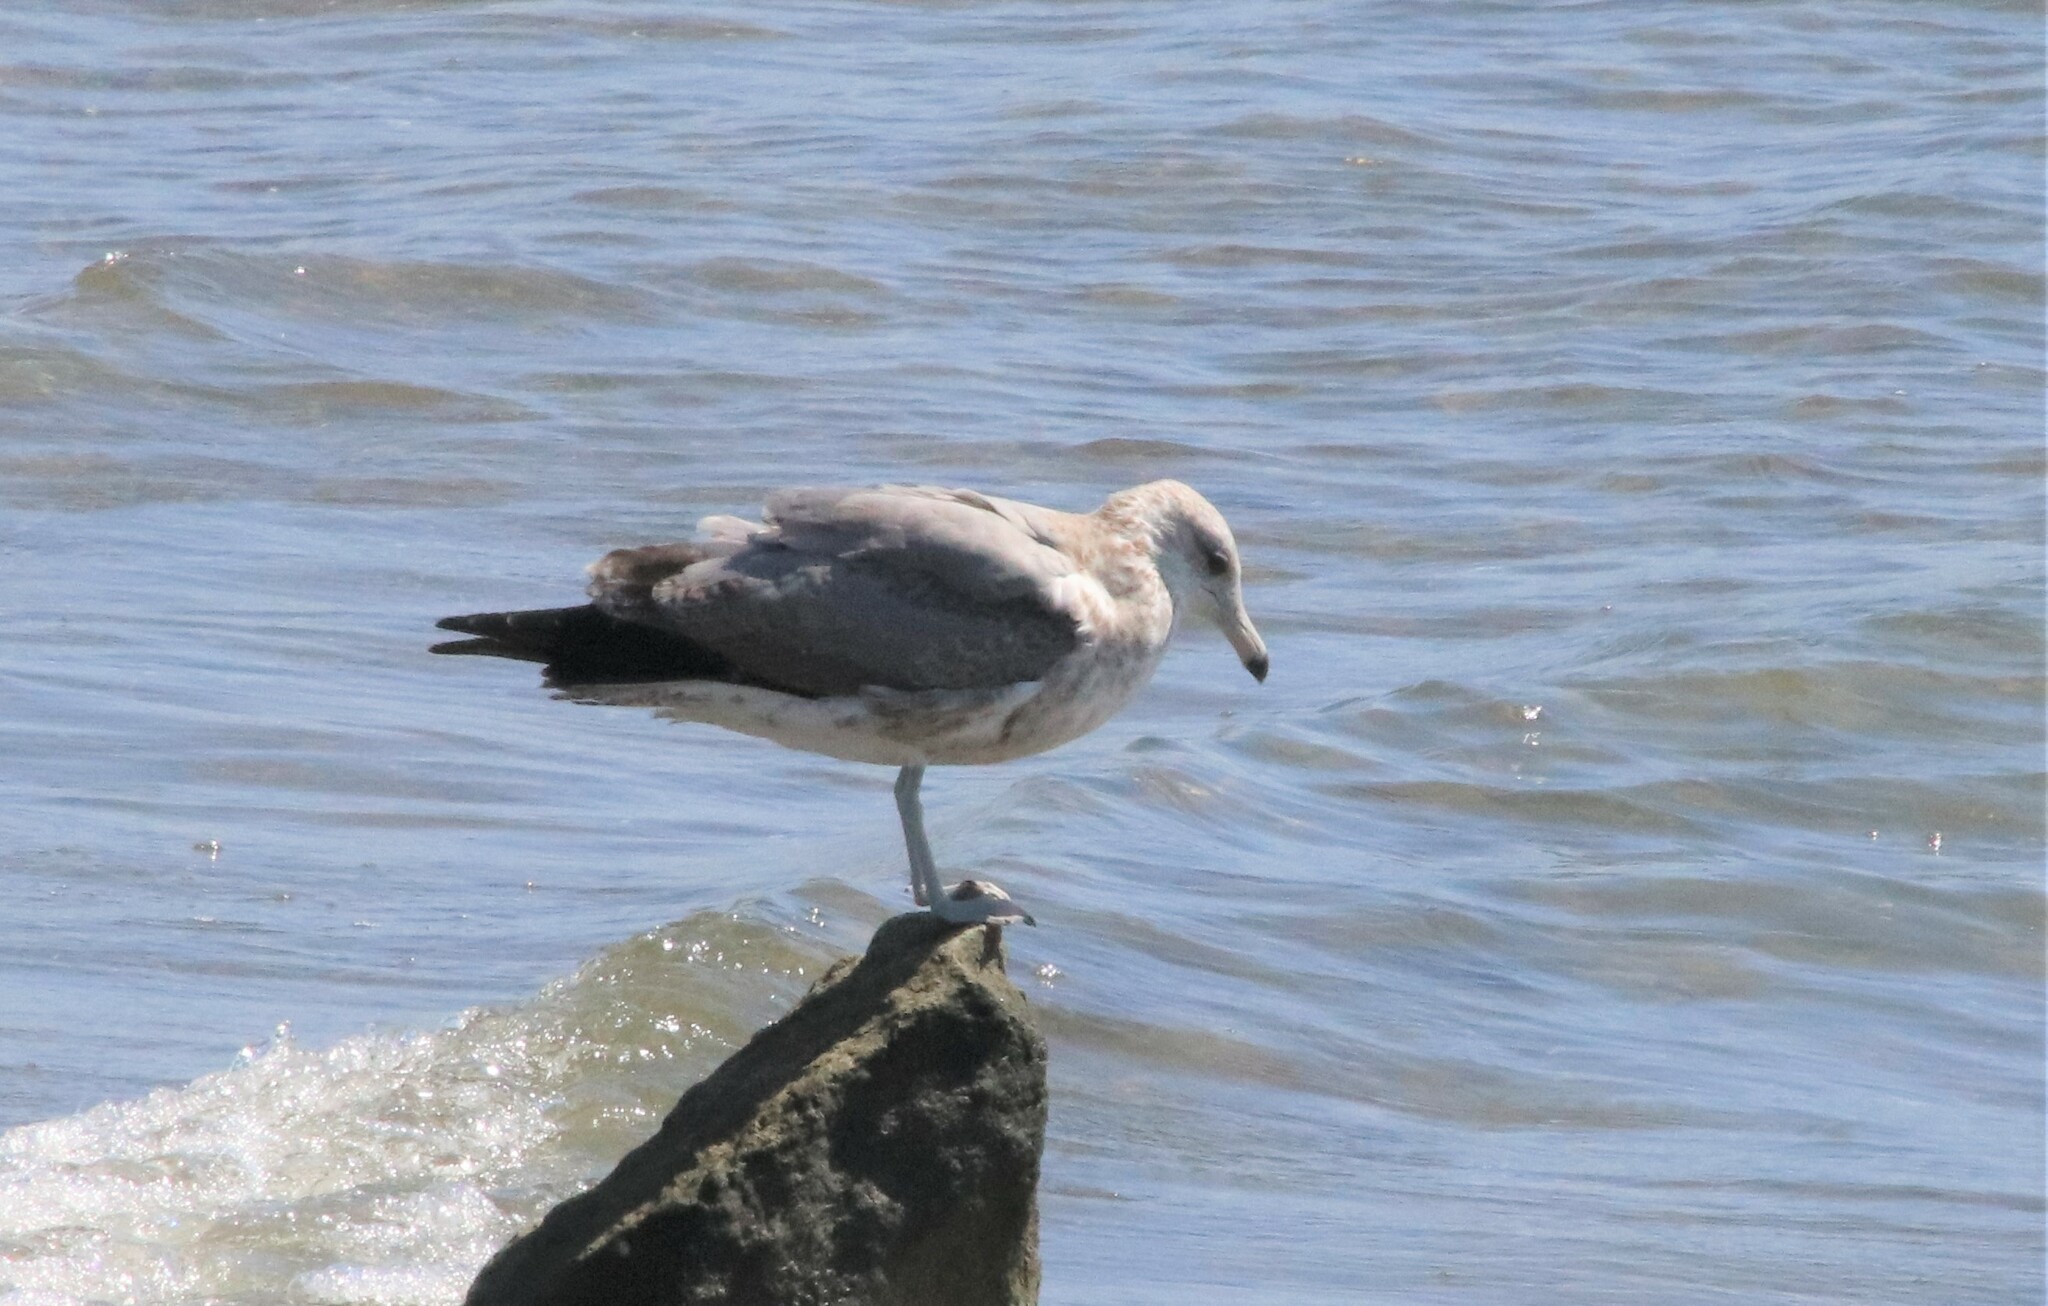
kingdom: Animalia
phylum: Chordata
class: Aves
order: Charadriiformes
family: Laridae
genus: Larus
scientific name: Larus californicus
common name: California gull
